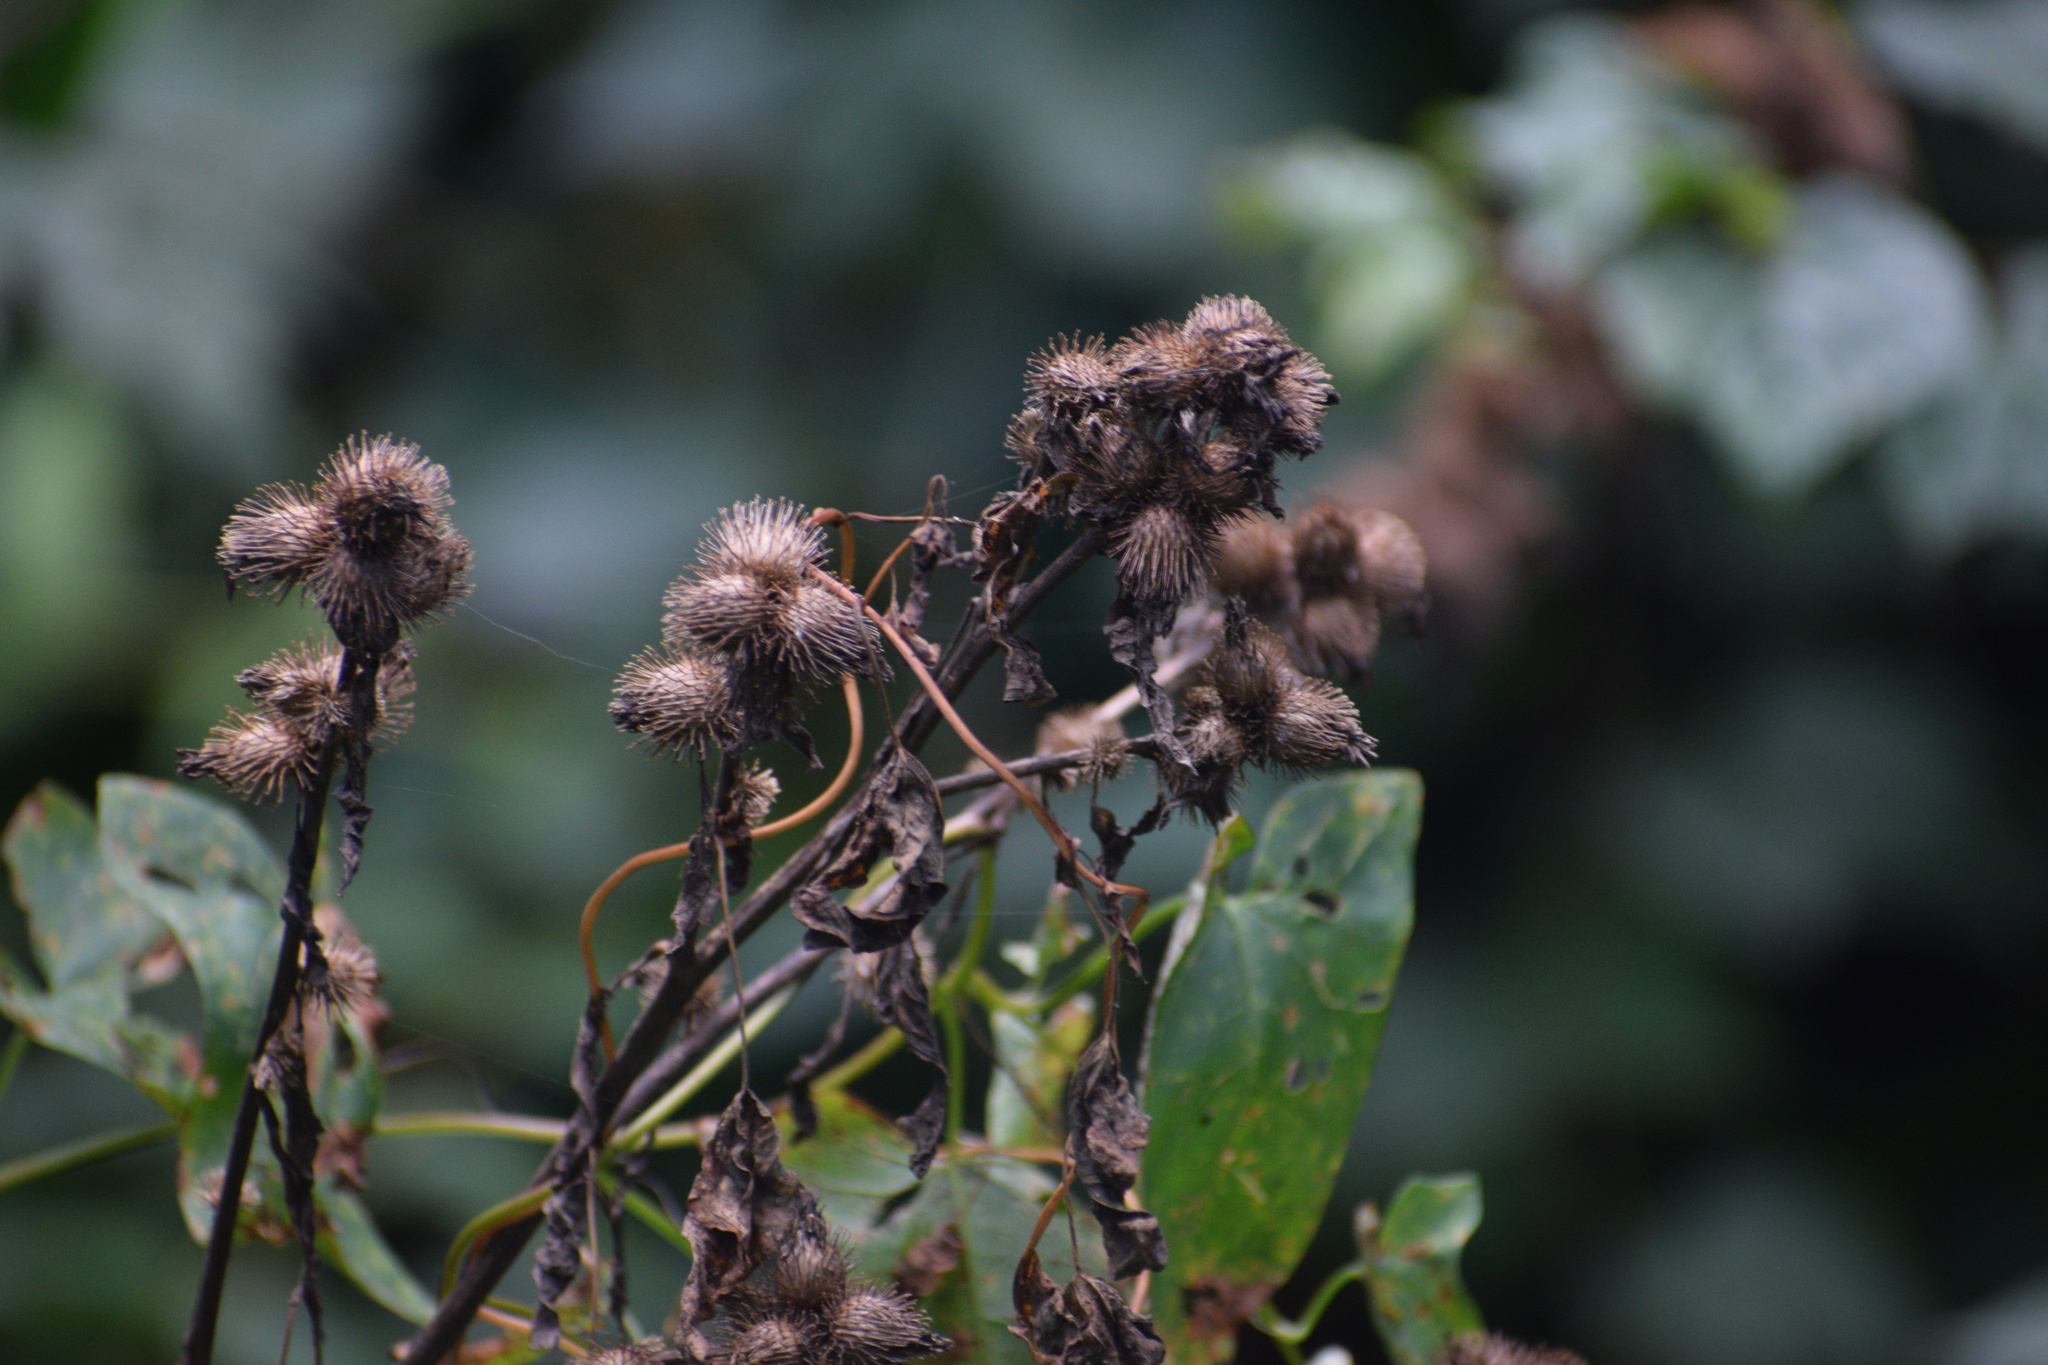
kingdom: Plantae
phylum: Tracheophyta
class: Magnoliopsida
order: Asterales
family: Asteraceae
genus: Arctium
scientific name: Arctium minus
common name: Lesser burdock
